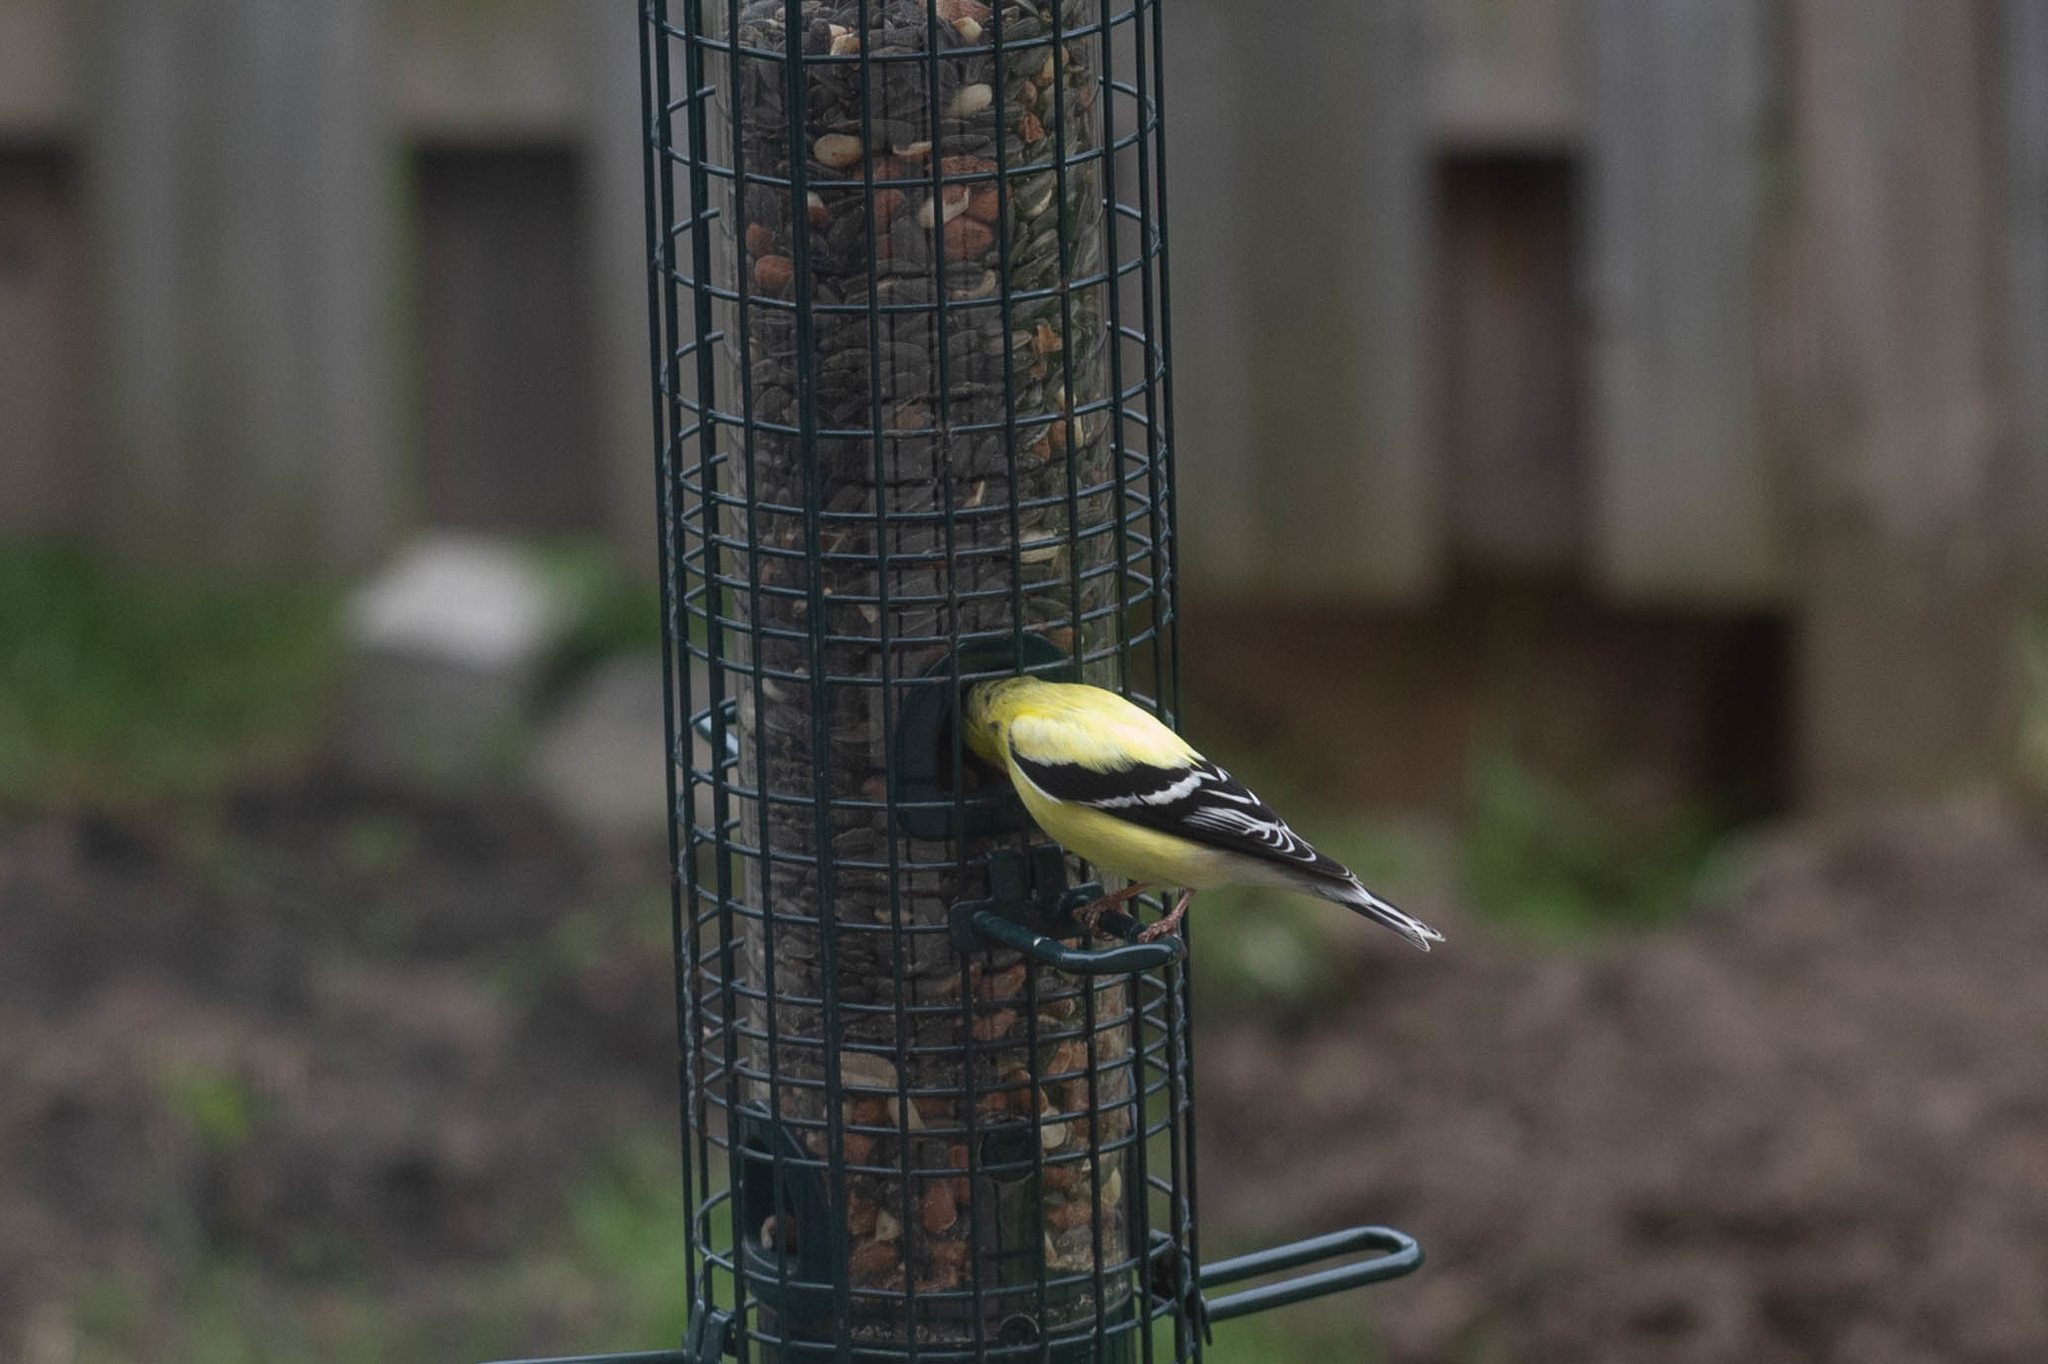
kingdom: Animalia
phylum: Chordata
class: Aves
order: Passeriformes
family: Fringillidae
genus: Spinus
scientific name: Spinus tristis
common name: American goldfinch
